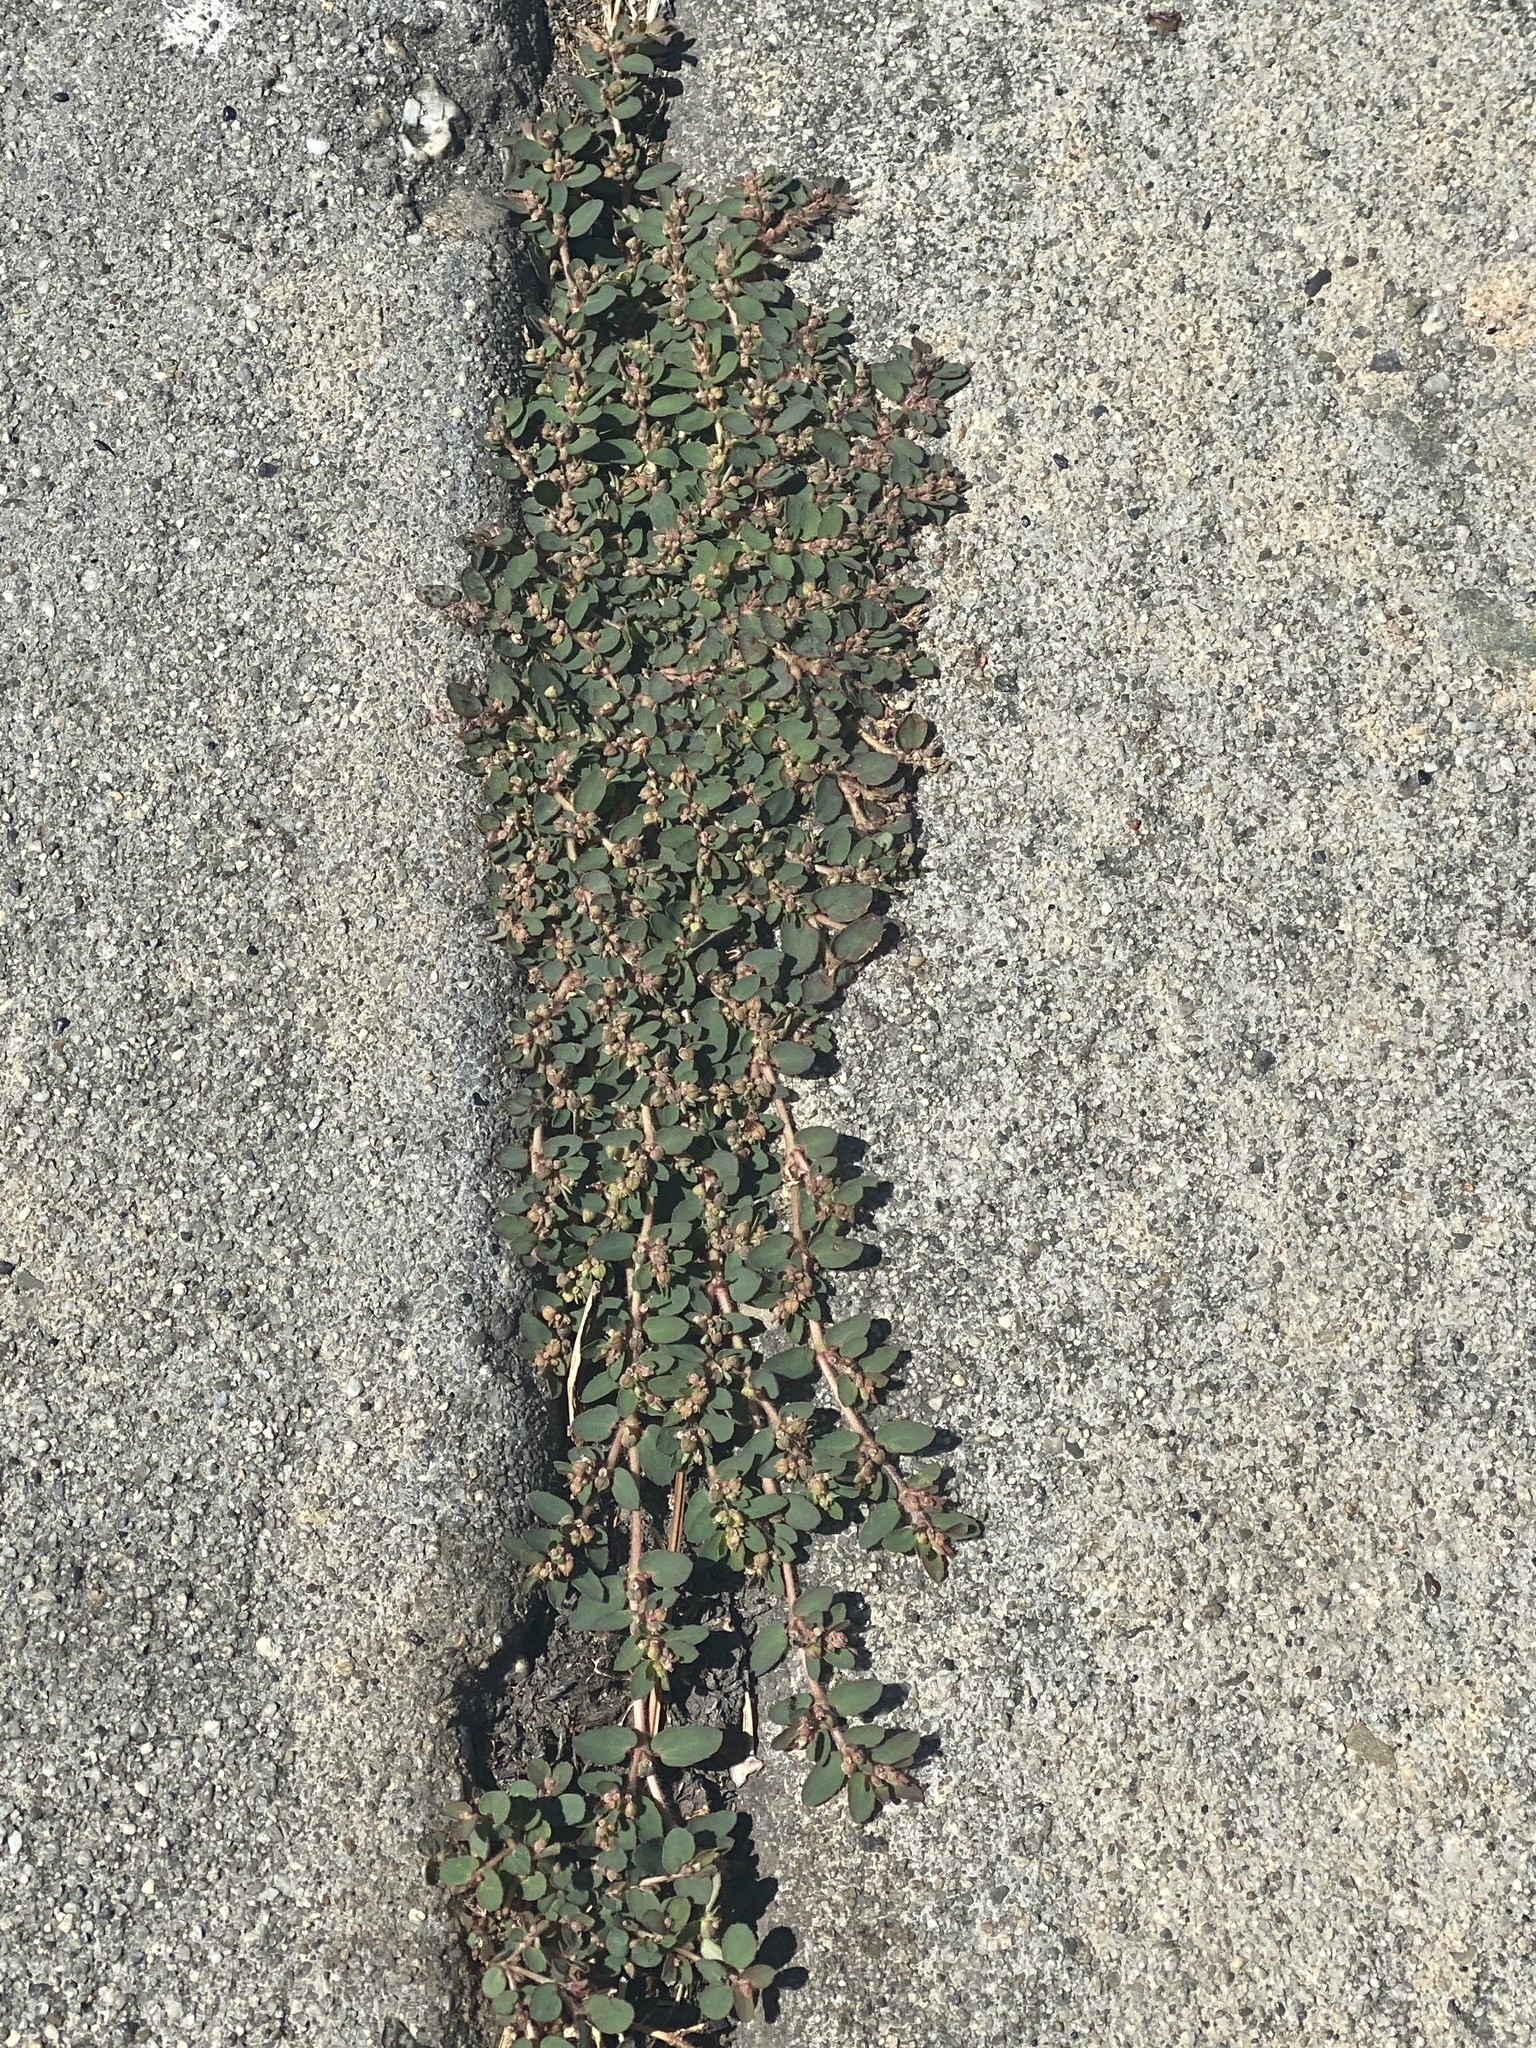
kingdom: Plantae
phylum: Tracheophyta
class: Magnoliopsida
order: Malpighiales
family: Euphorbiaceae
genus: Euphorbia
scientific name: Euphorbia maculata
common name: Spotted spurge
